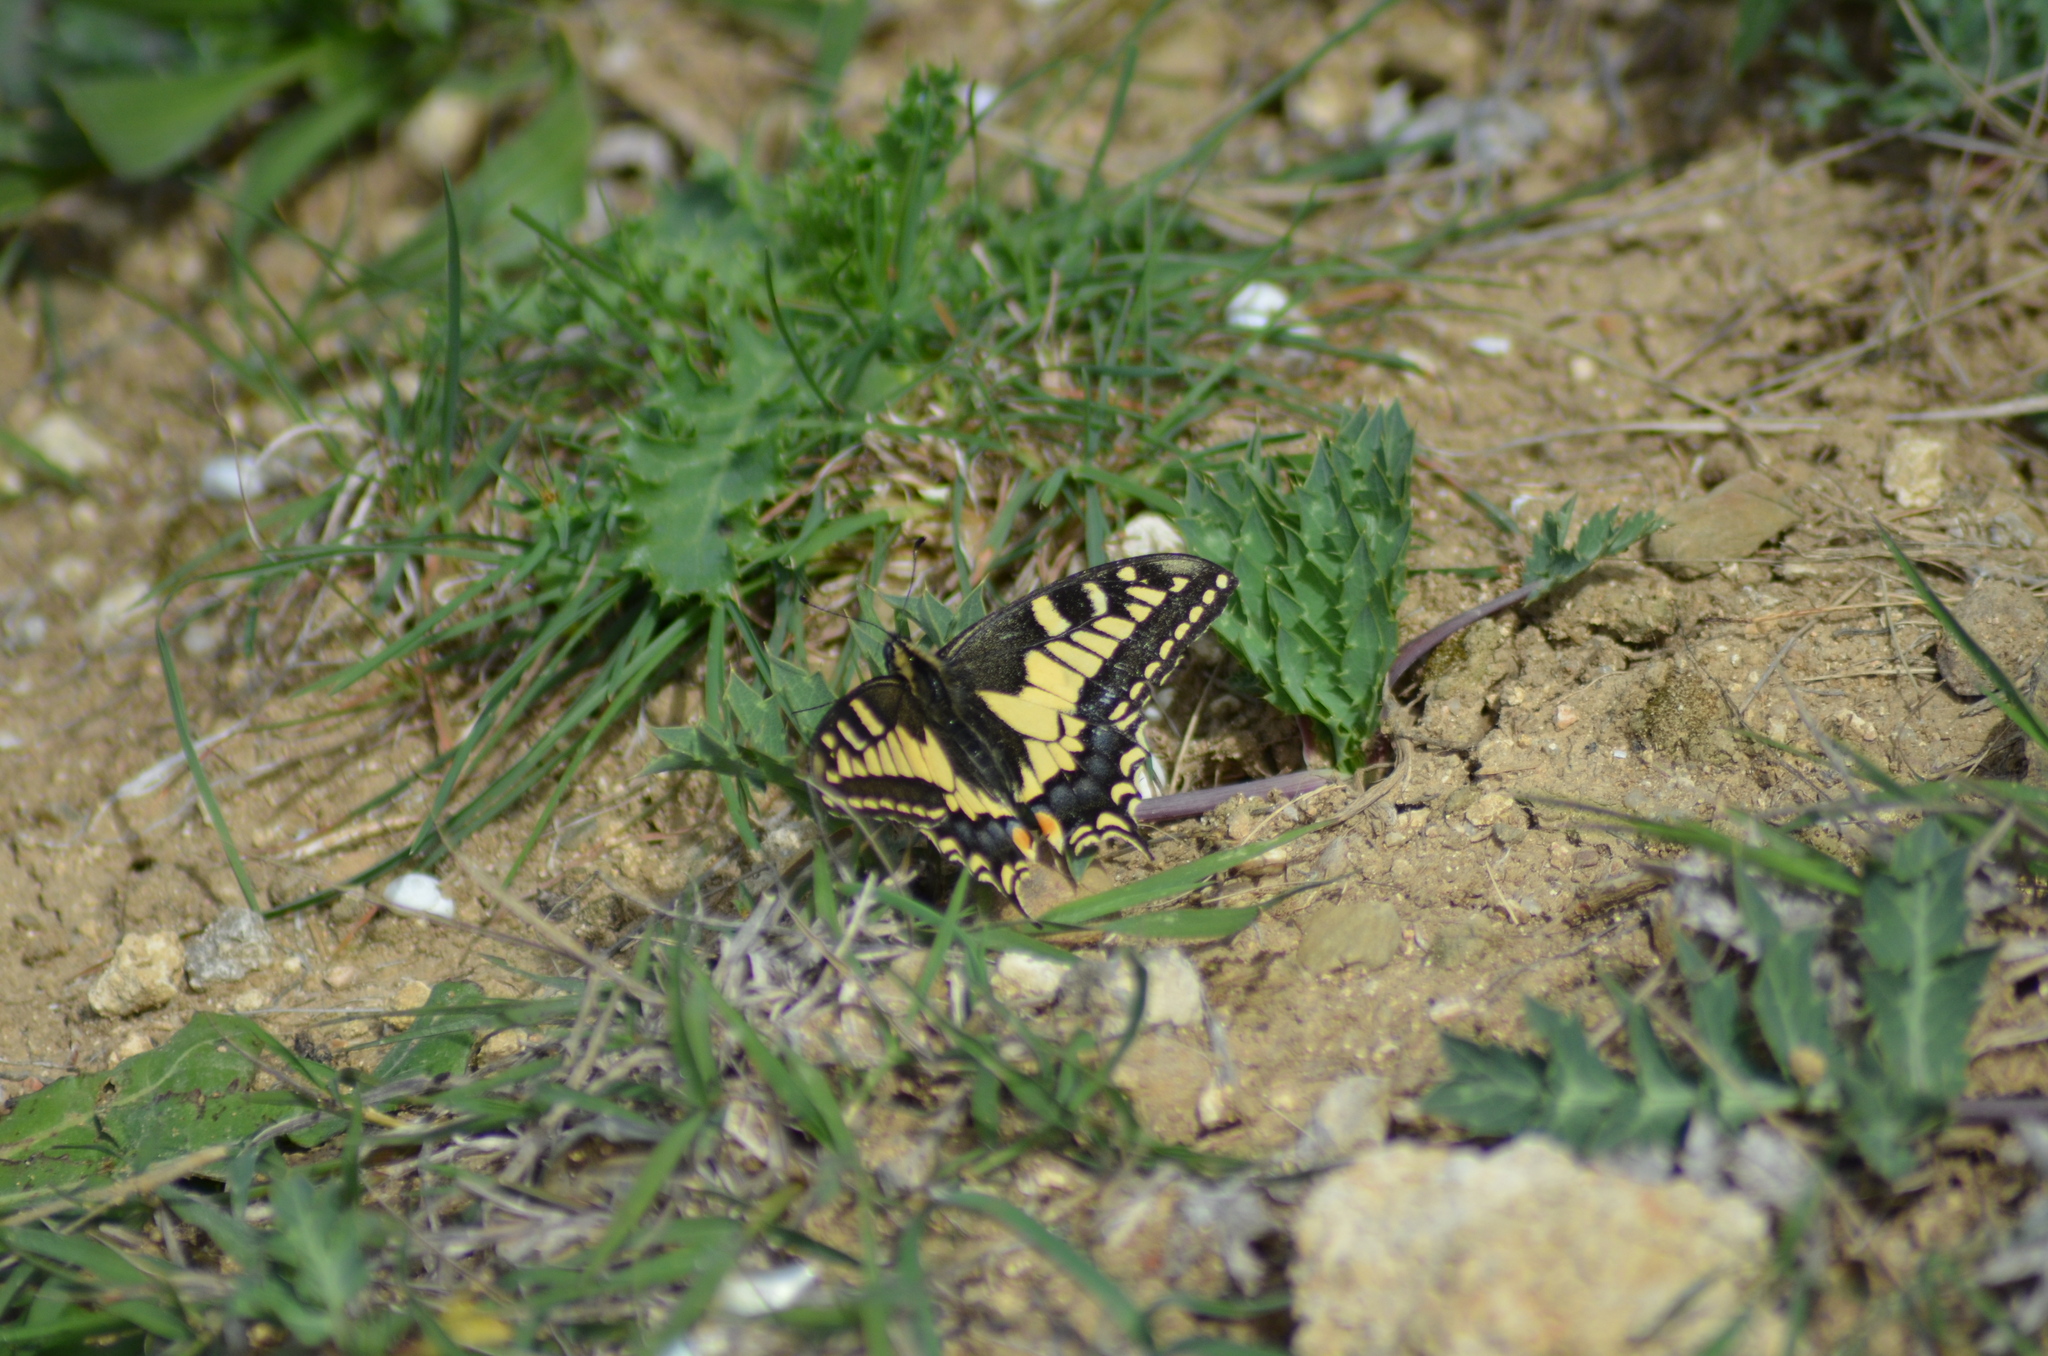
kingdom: Animalia
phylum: Arthropoda
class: Insecta
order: Lepidoptera
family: Papilionidae
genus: Papilio
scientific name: Papilio machaon
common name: Swallowtail
